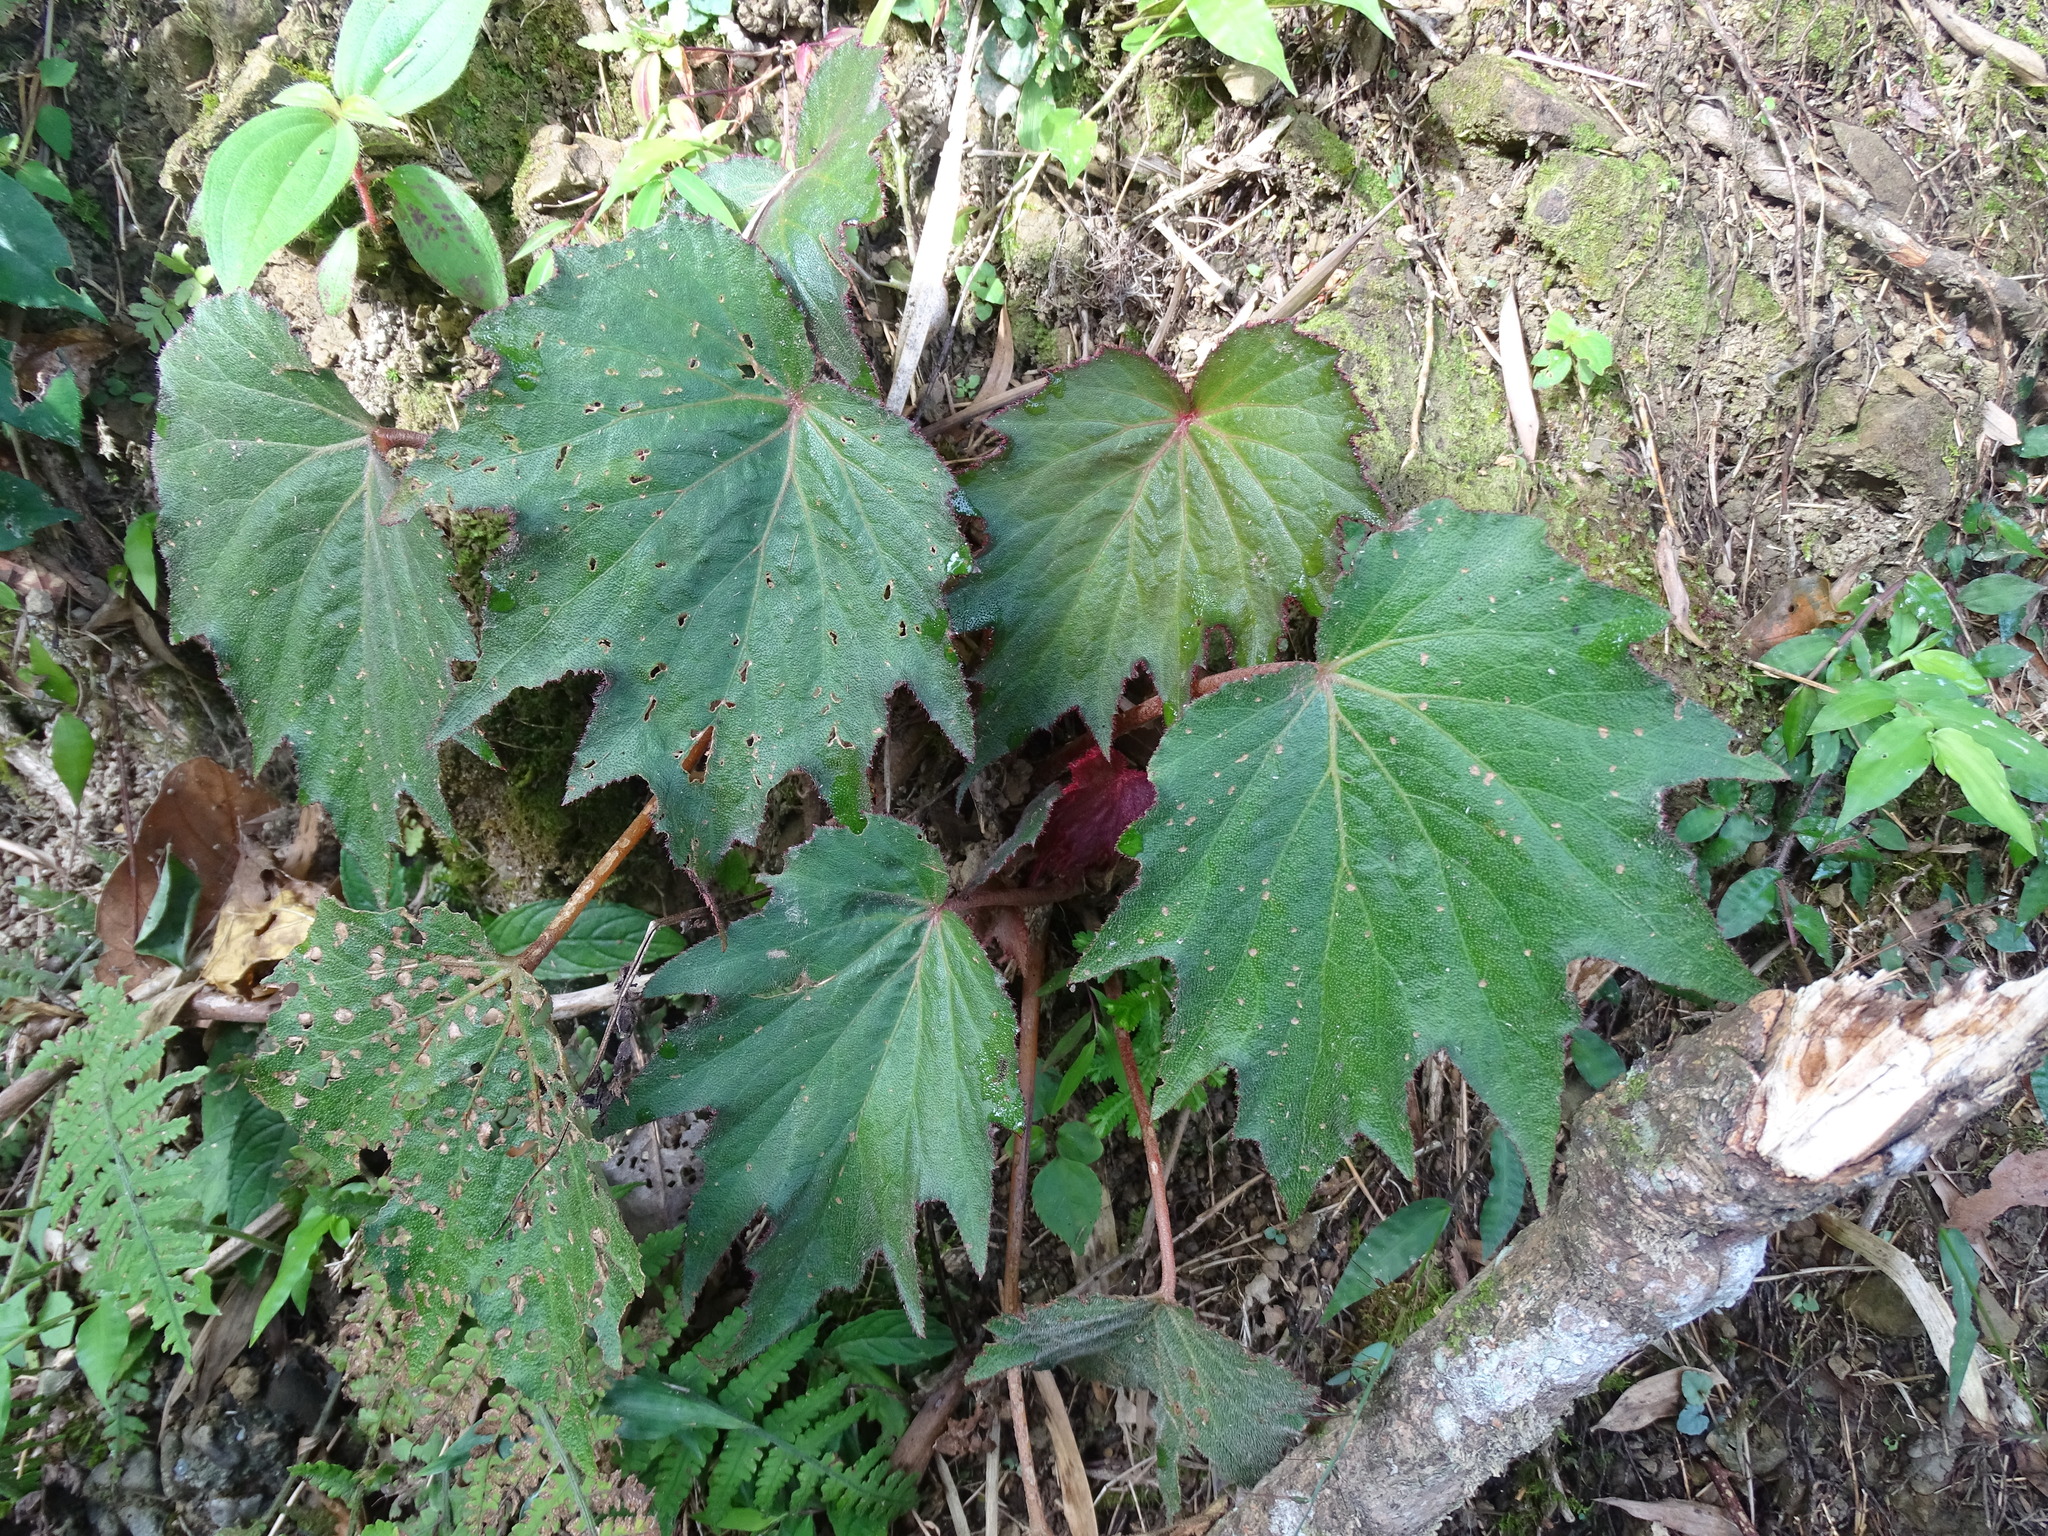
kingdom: Plantae
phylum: Tracheophyta
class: Magnoliopsida
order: Cucurbitales
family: Begoniaceae
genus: Begonia
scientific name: Begonia palmata
